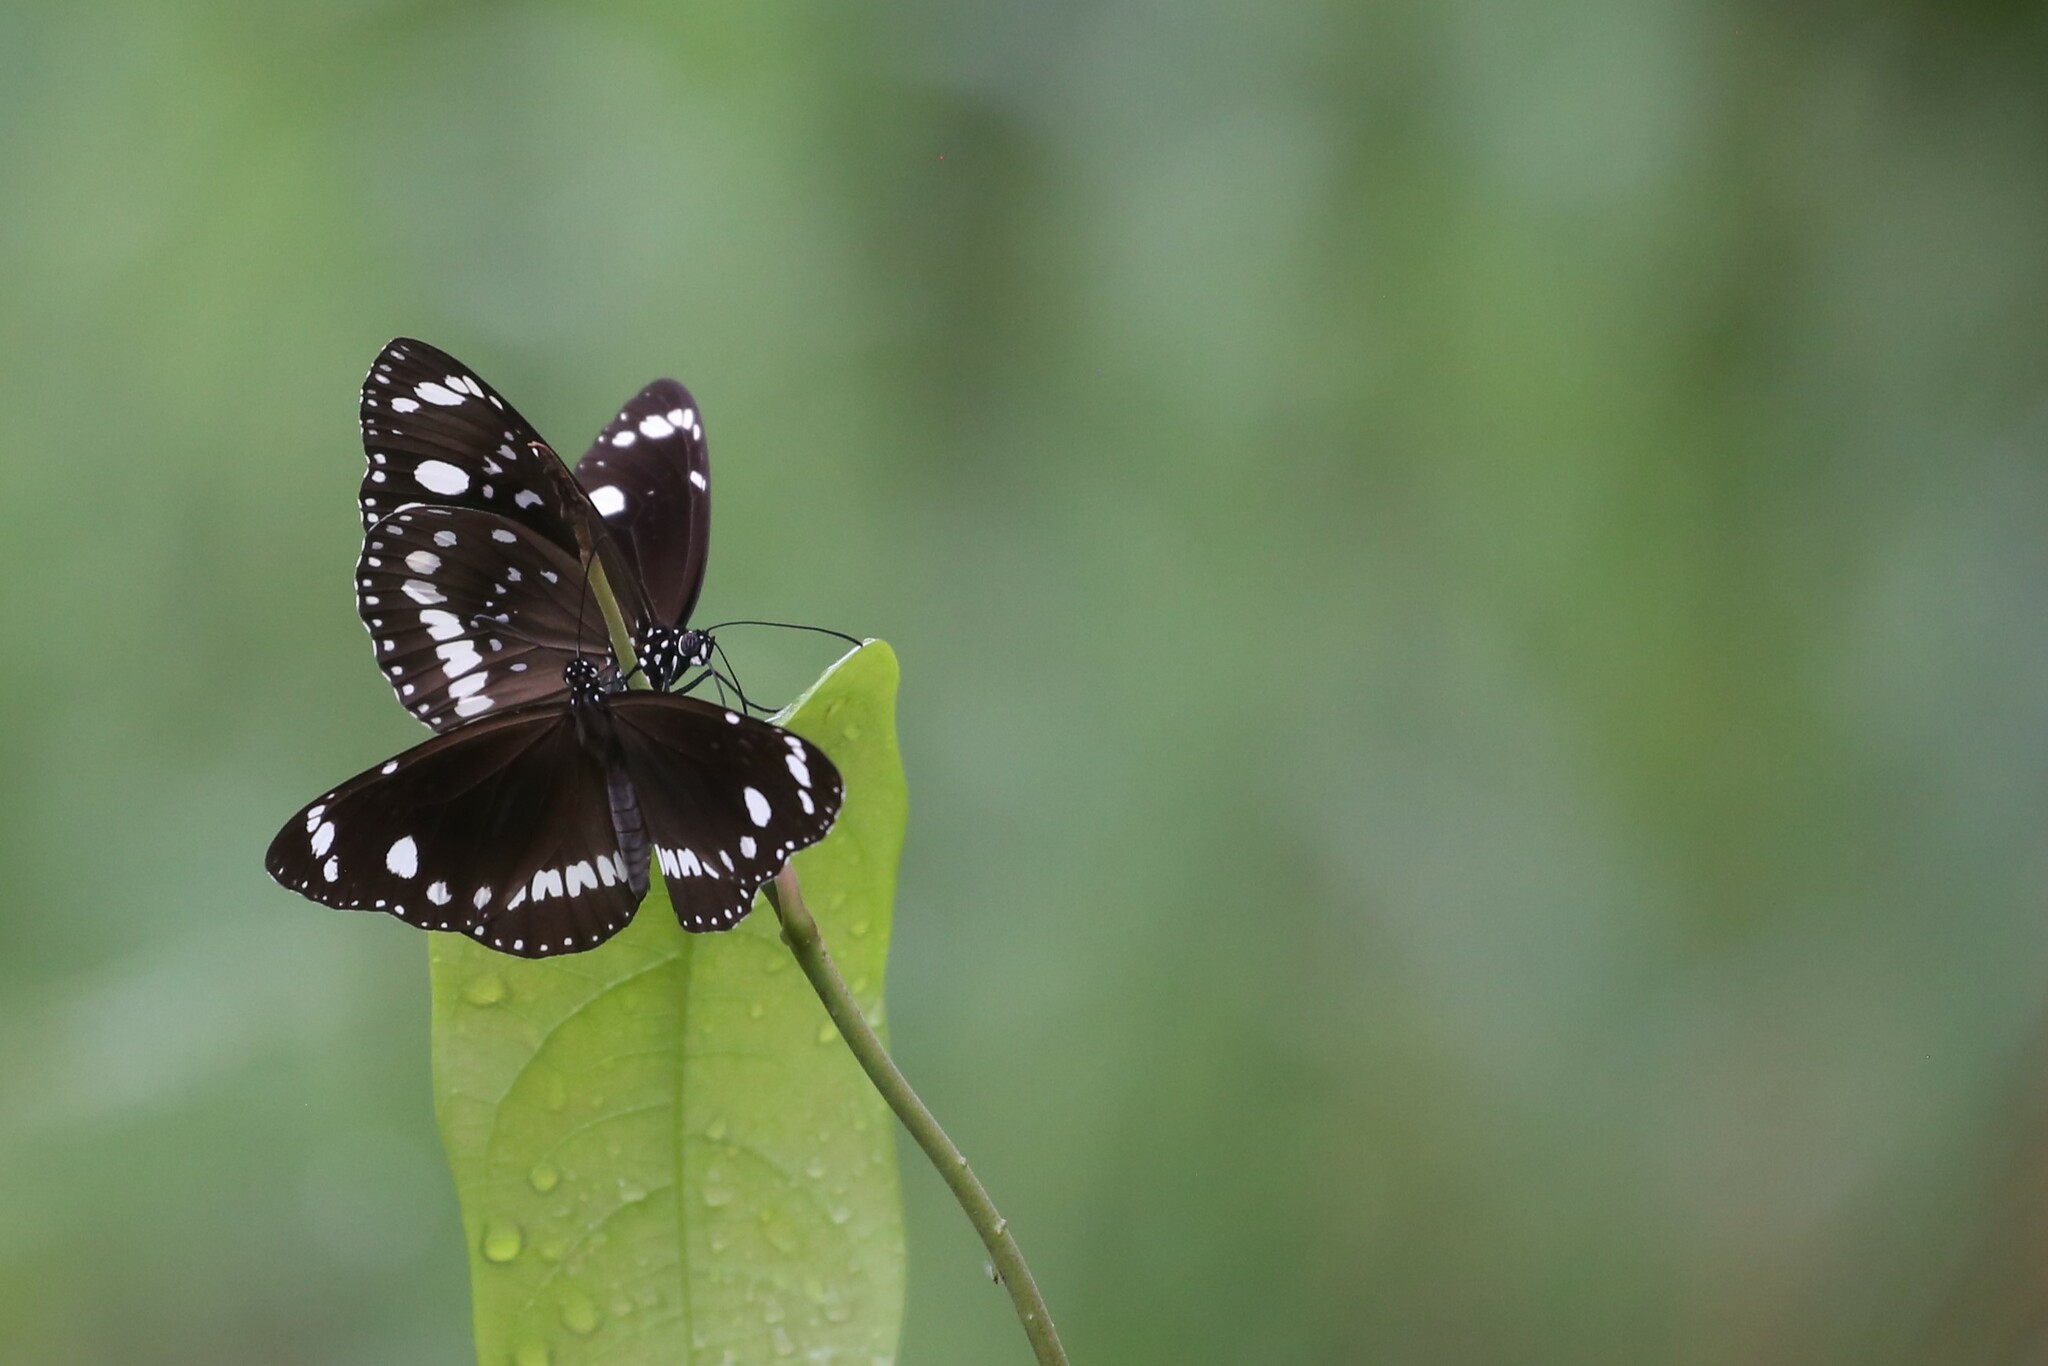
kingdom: Animalia
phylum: Arthropoda
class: Insecta
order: Lepidoptera
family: Nymphalidae
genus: Euploea
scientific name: Euploea core
